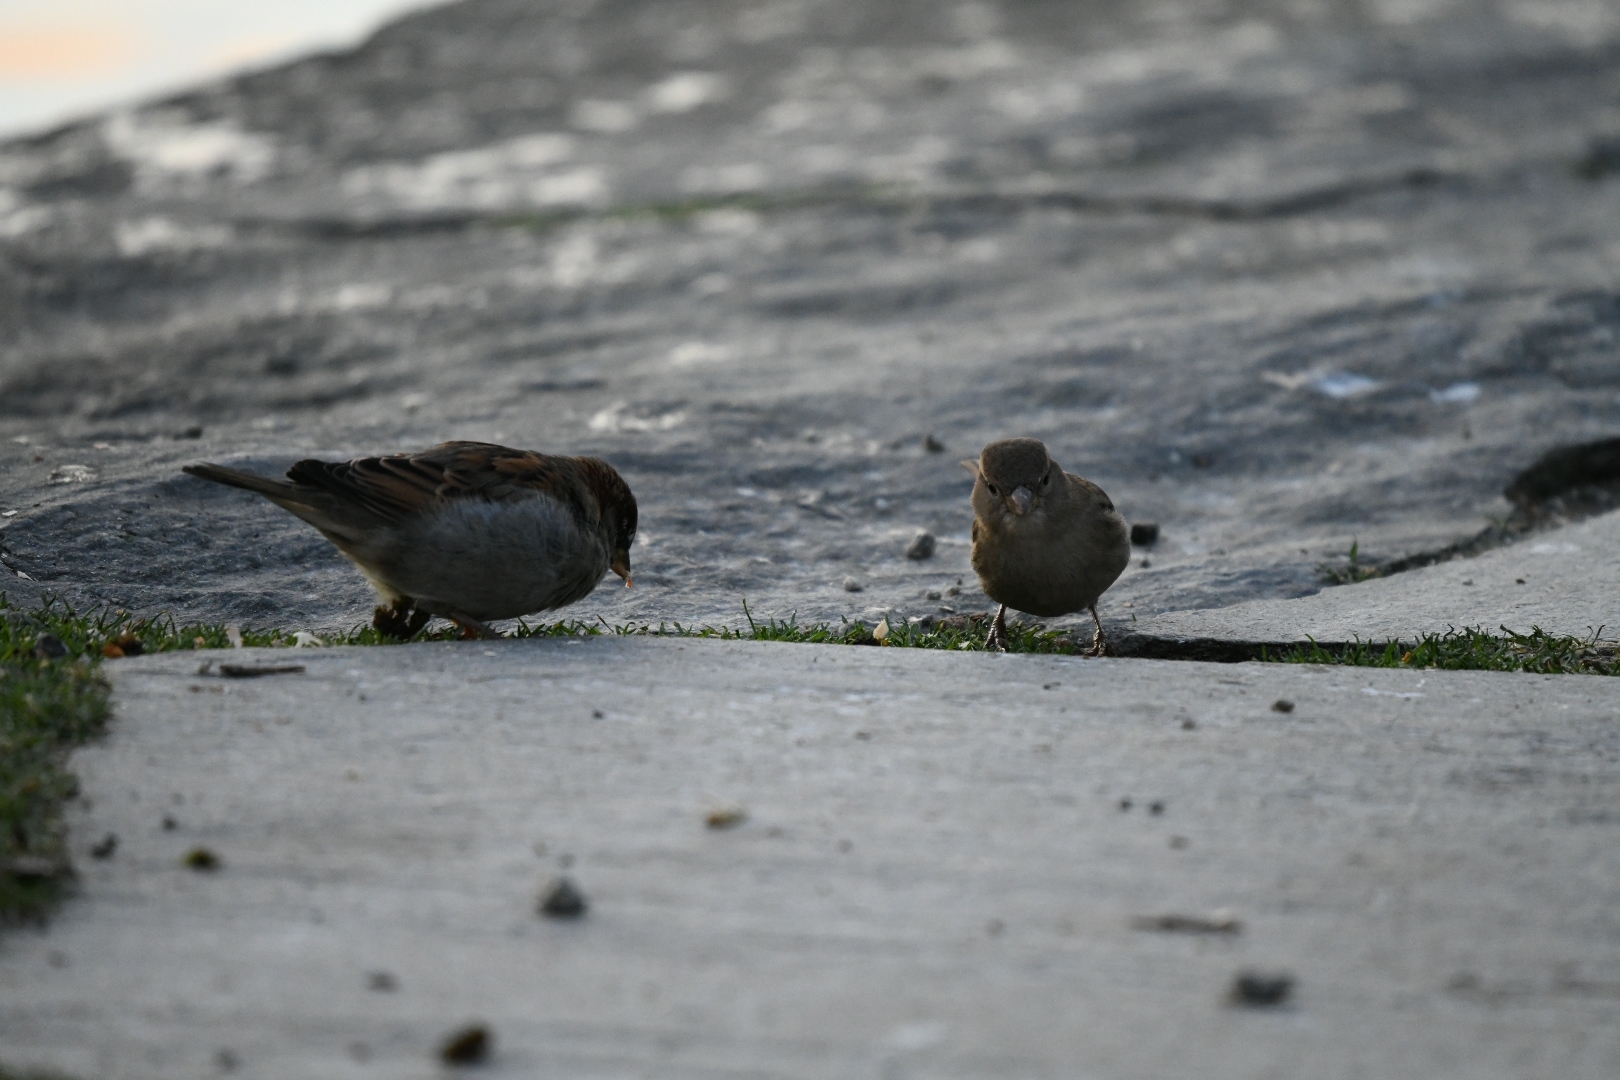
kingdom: Animalia
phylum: Chordata
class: Aves
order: Passeriformes
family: Passeridae
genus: Passer
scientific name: Passer domesticus
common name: House sparrow
